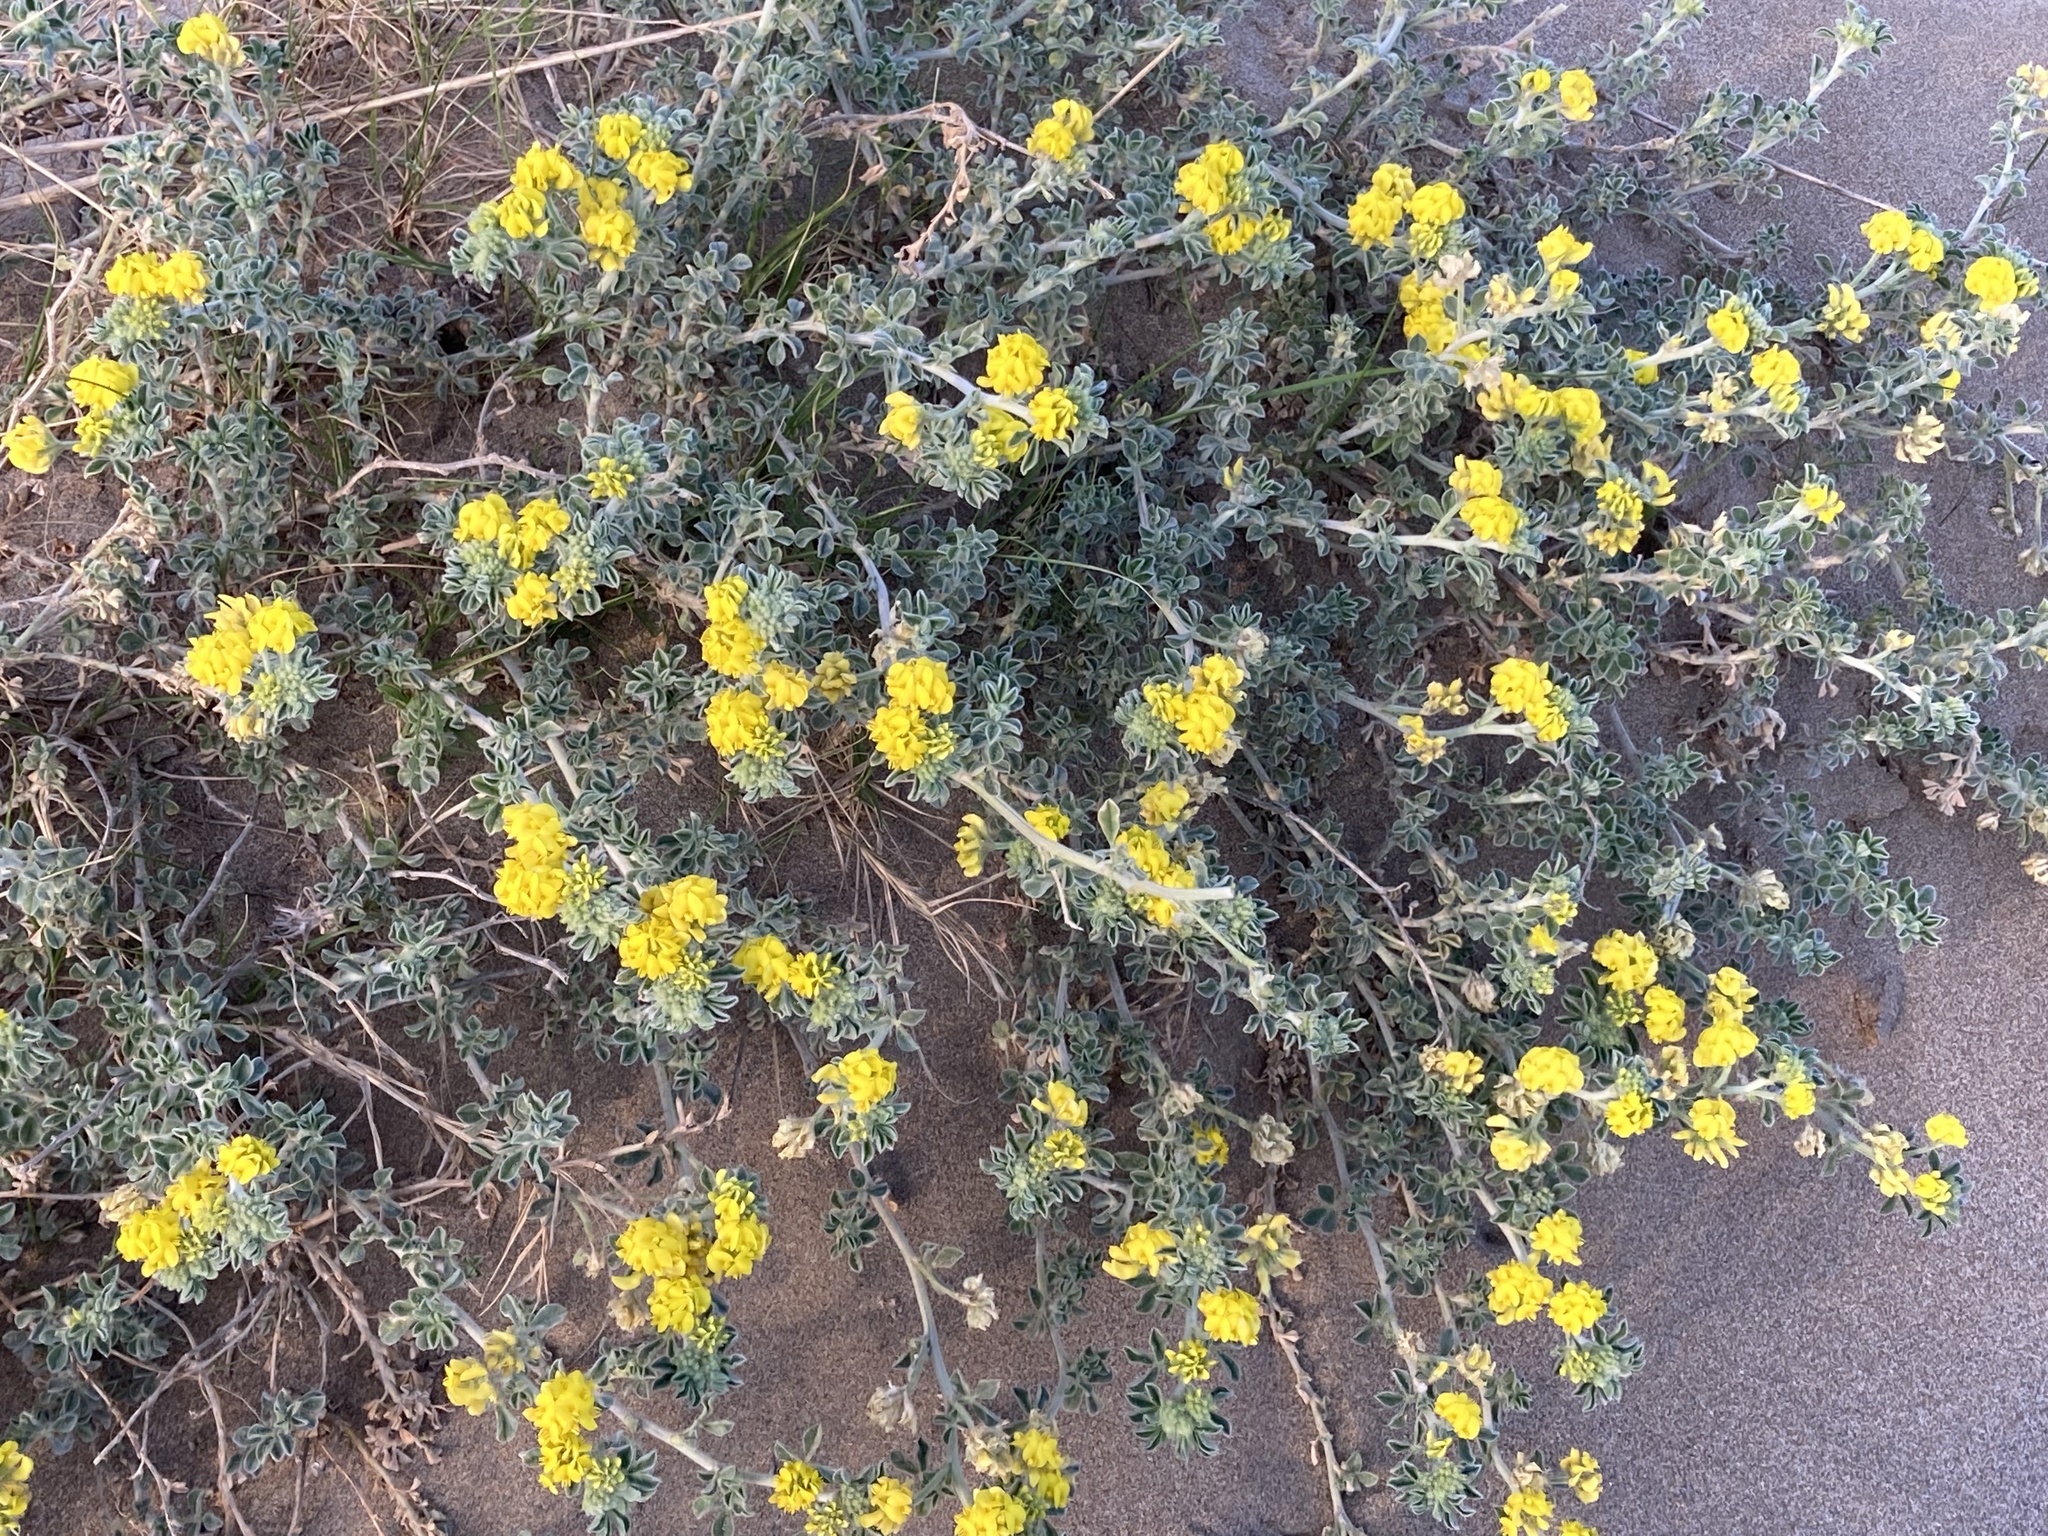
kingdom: Plantae
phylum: Tracheophyta
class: Magnoliopsida
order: Fabales
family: Fabaceae
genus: Medicago
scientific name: Medicago marina
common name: Sea medick
